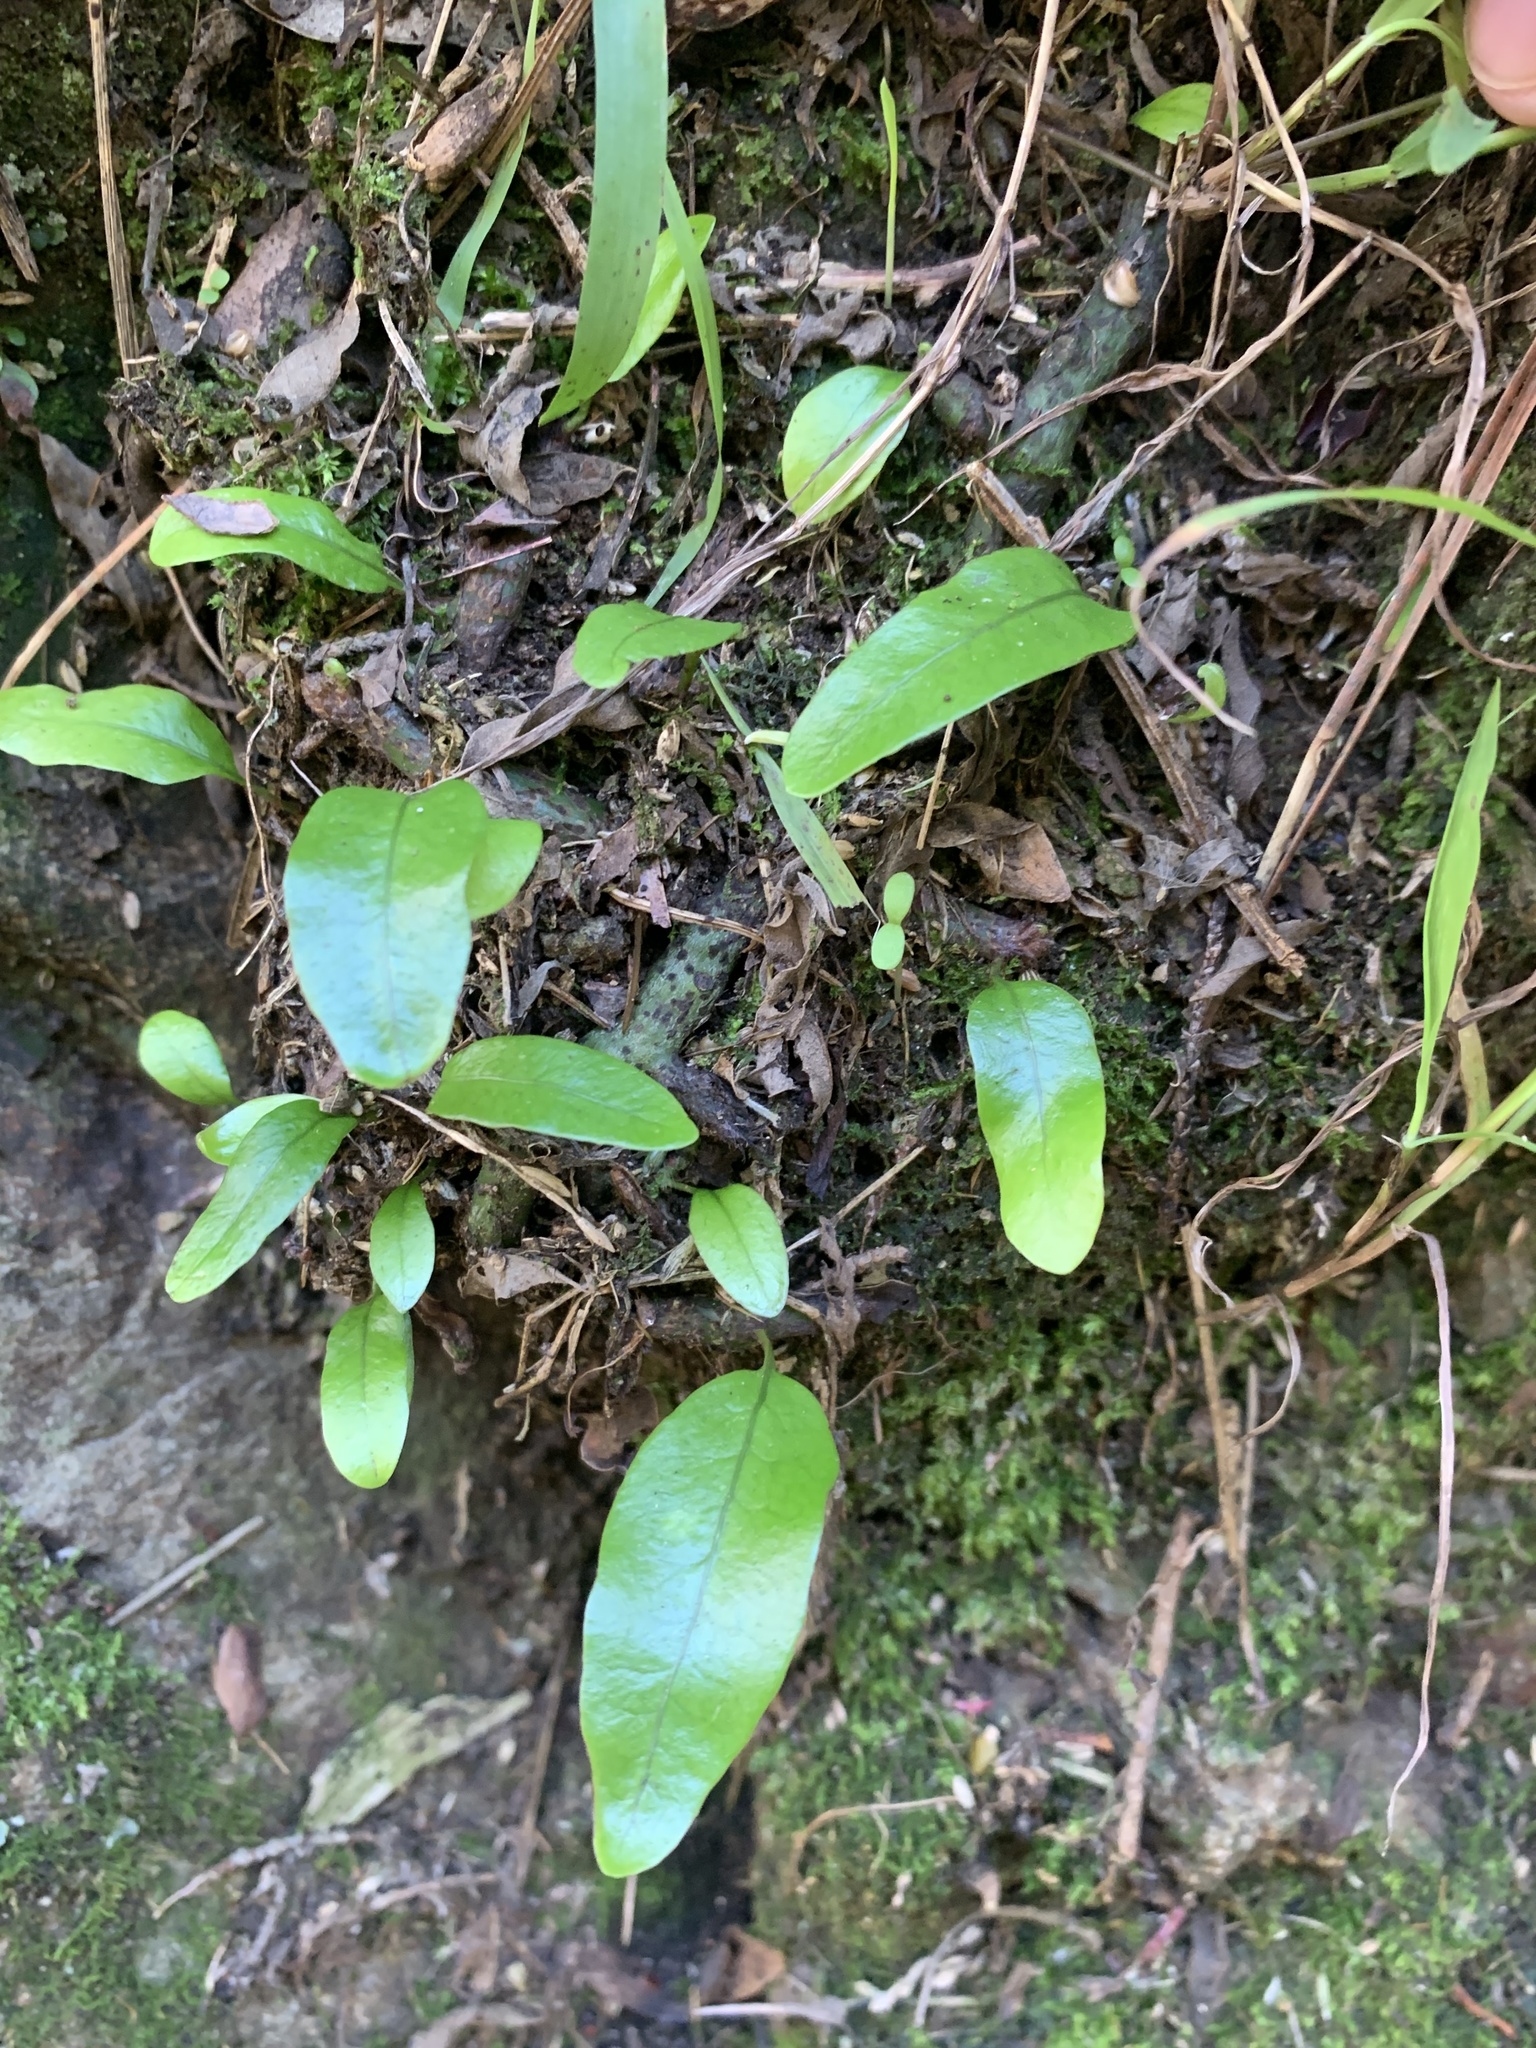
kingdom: Plantae
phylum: Tracheophyta
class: Polypodiopsida
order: Polypodiales
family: Polypodiaceae
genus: Lecanopteris
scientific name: Lecanopteris pustulata
